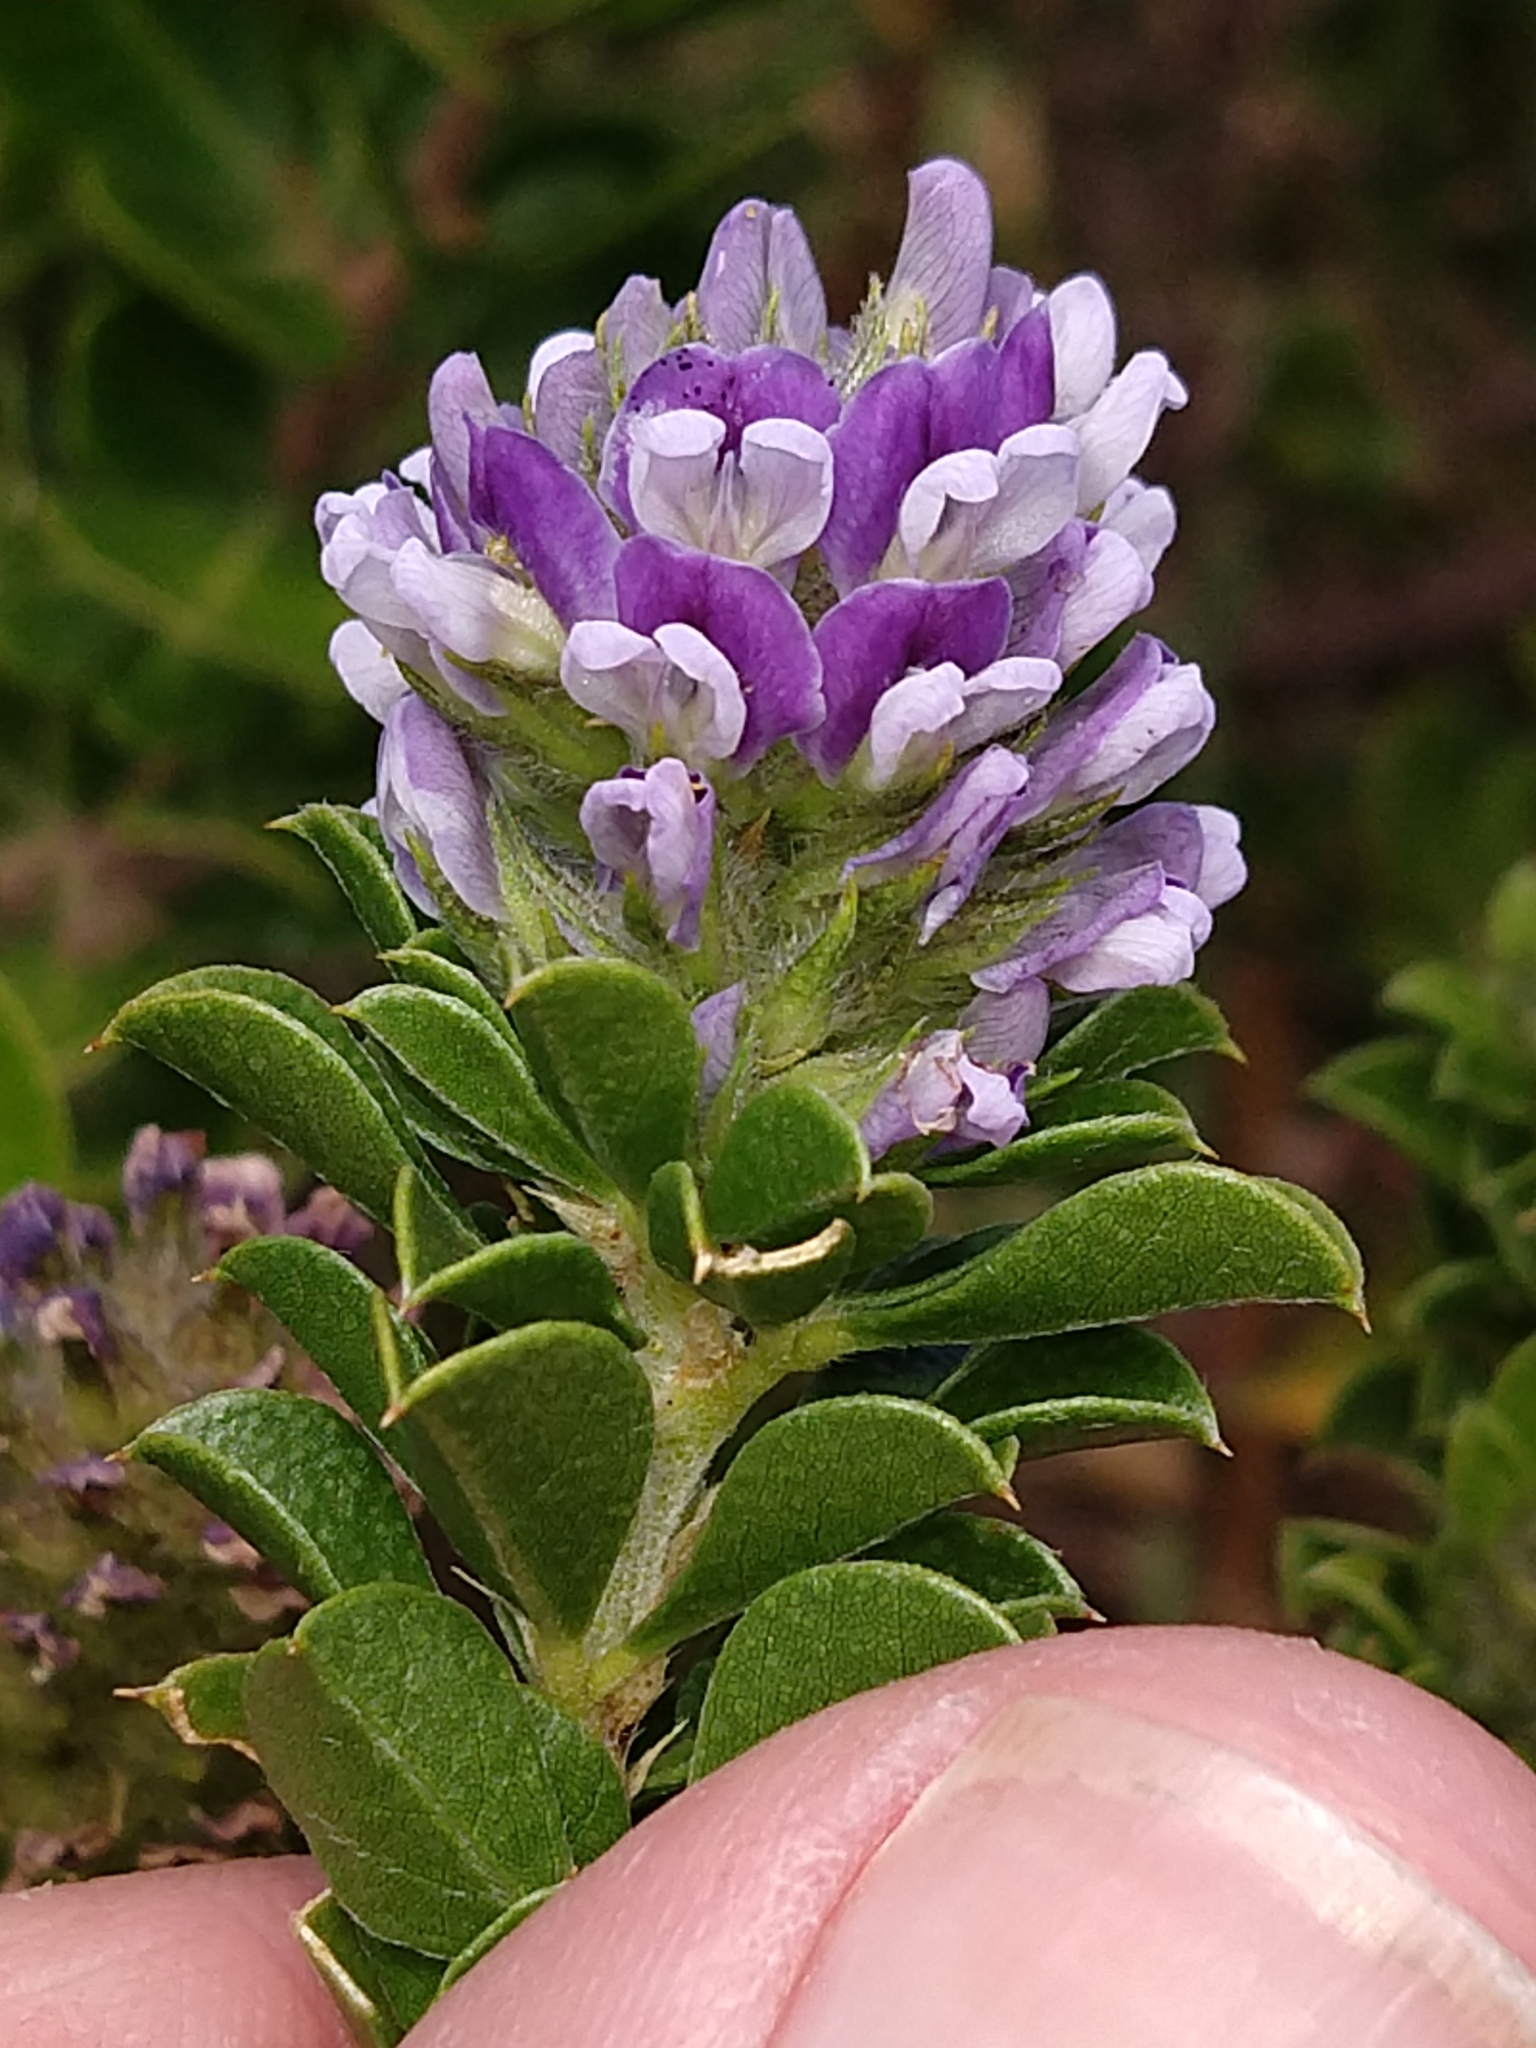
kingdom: Plantae
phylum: Tracheophyta
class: Magnoliopsida
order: Fabales
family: Fabaceae
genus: Psoralea
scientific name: Psoralea bracteolata
